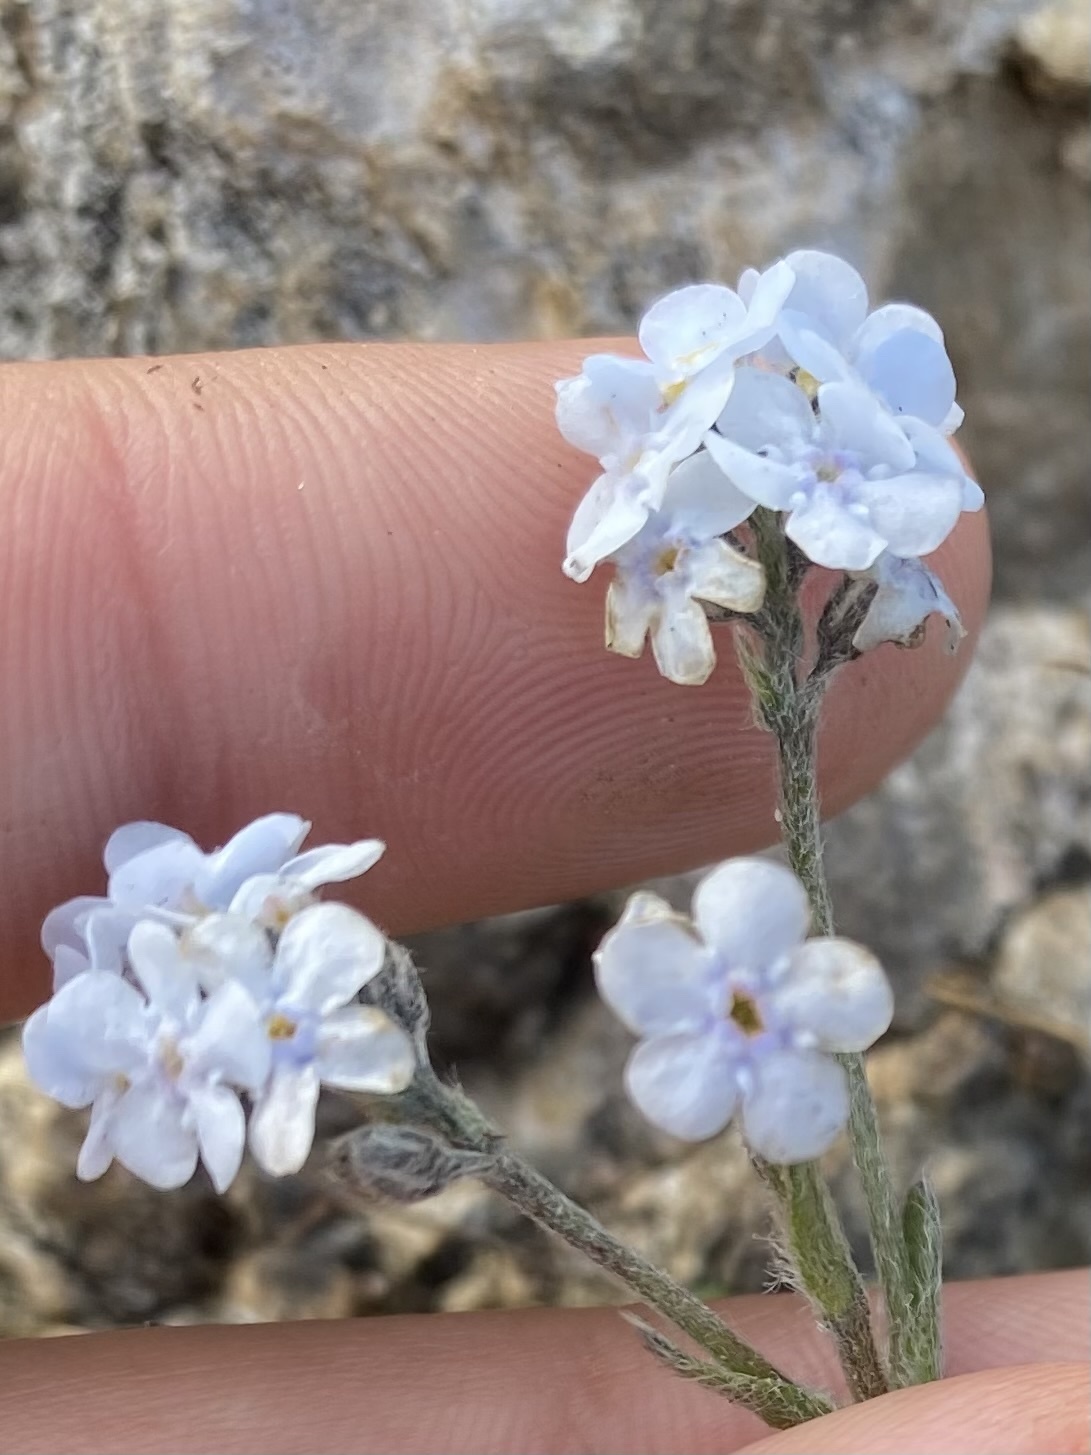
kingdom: Plantae
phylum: Tracheophyta
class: Magnoliopsida
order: Boraginales
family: Boraginaceae
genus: Eritrichium
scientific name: Eritrichium caucasicum
